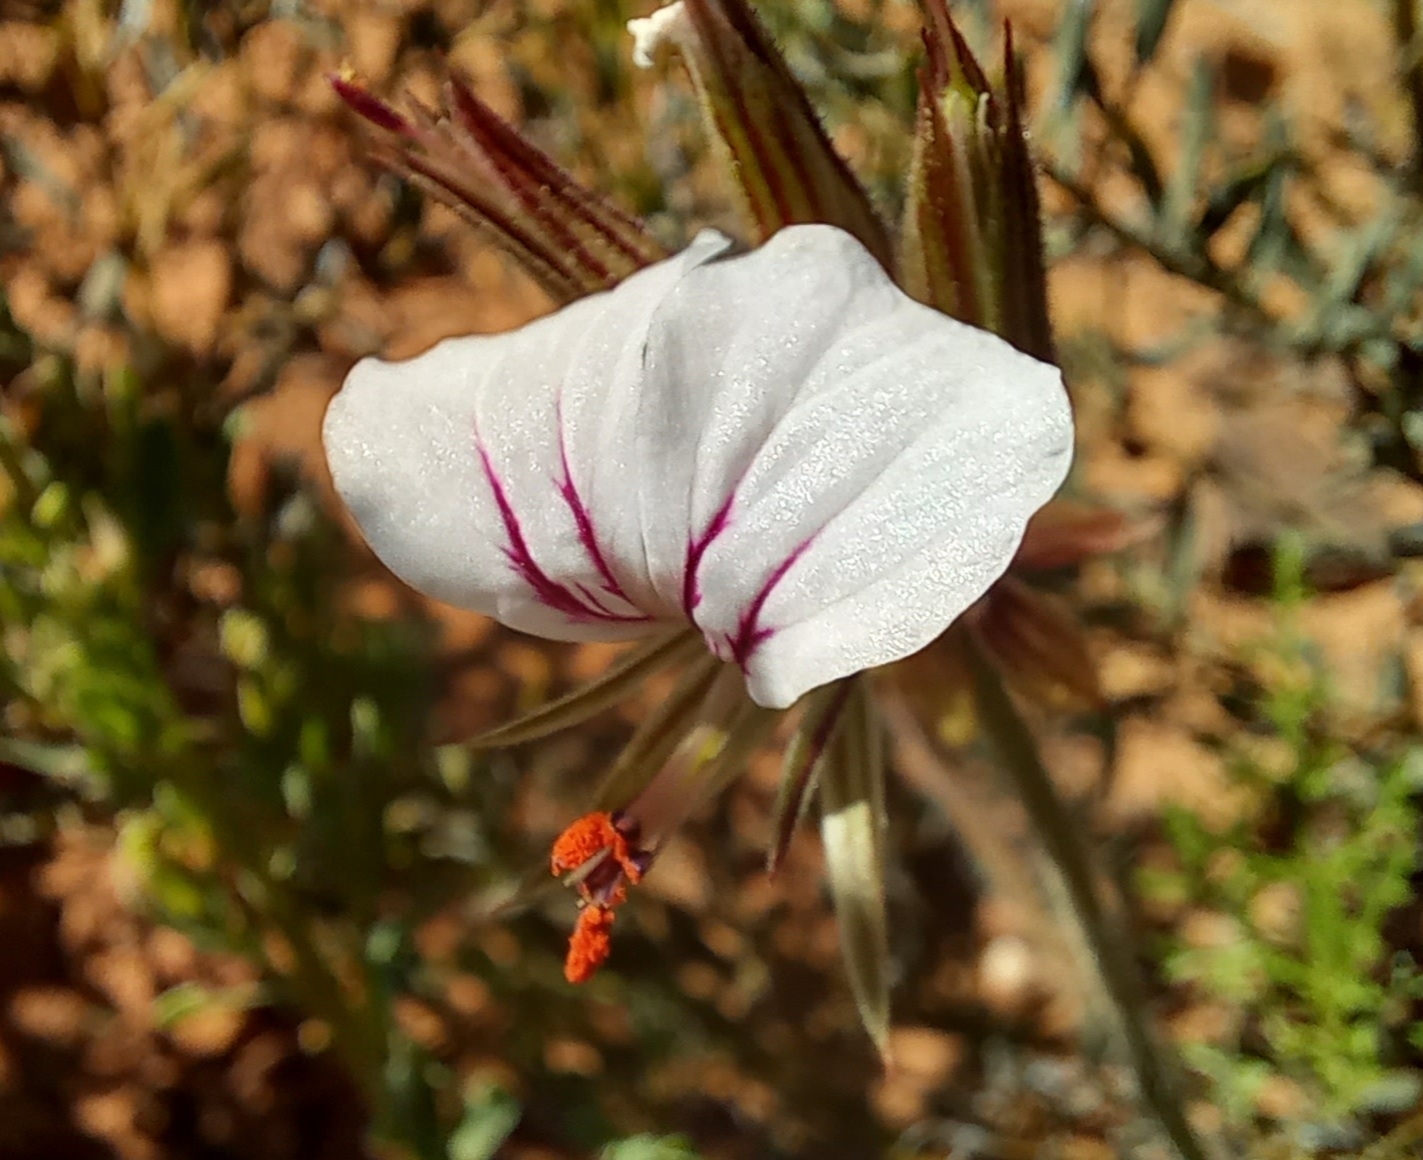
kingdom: Plantae
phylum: Tracheophyta
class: Magnoliopsida
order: Geraniales
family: Geraniaceae
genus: Pelargonium
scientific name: Pelargonium myrrhifolium
